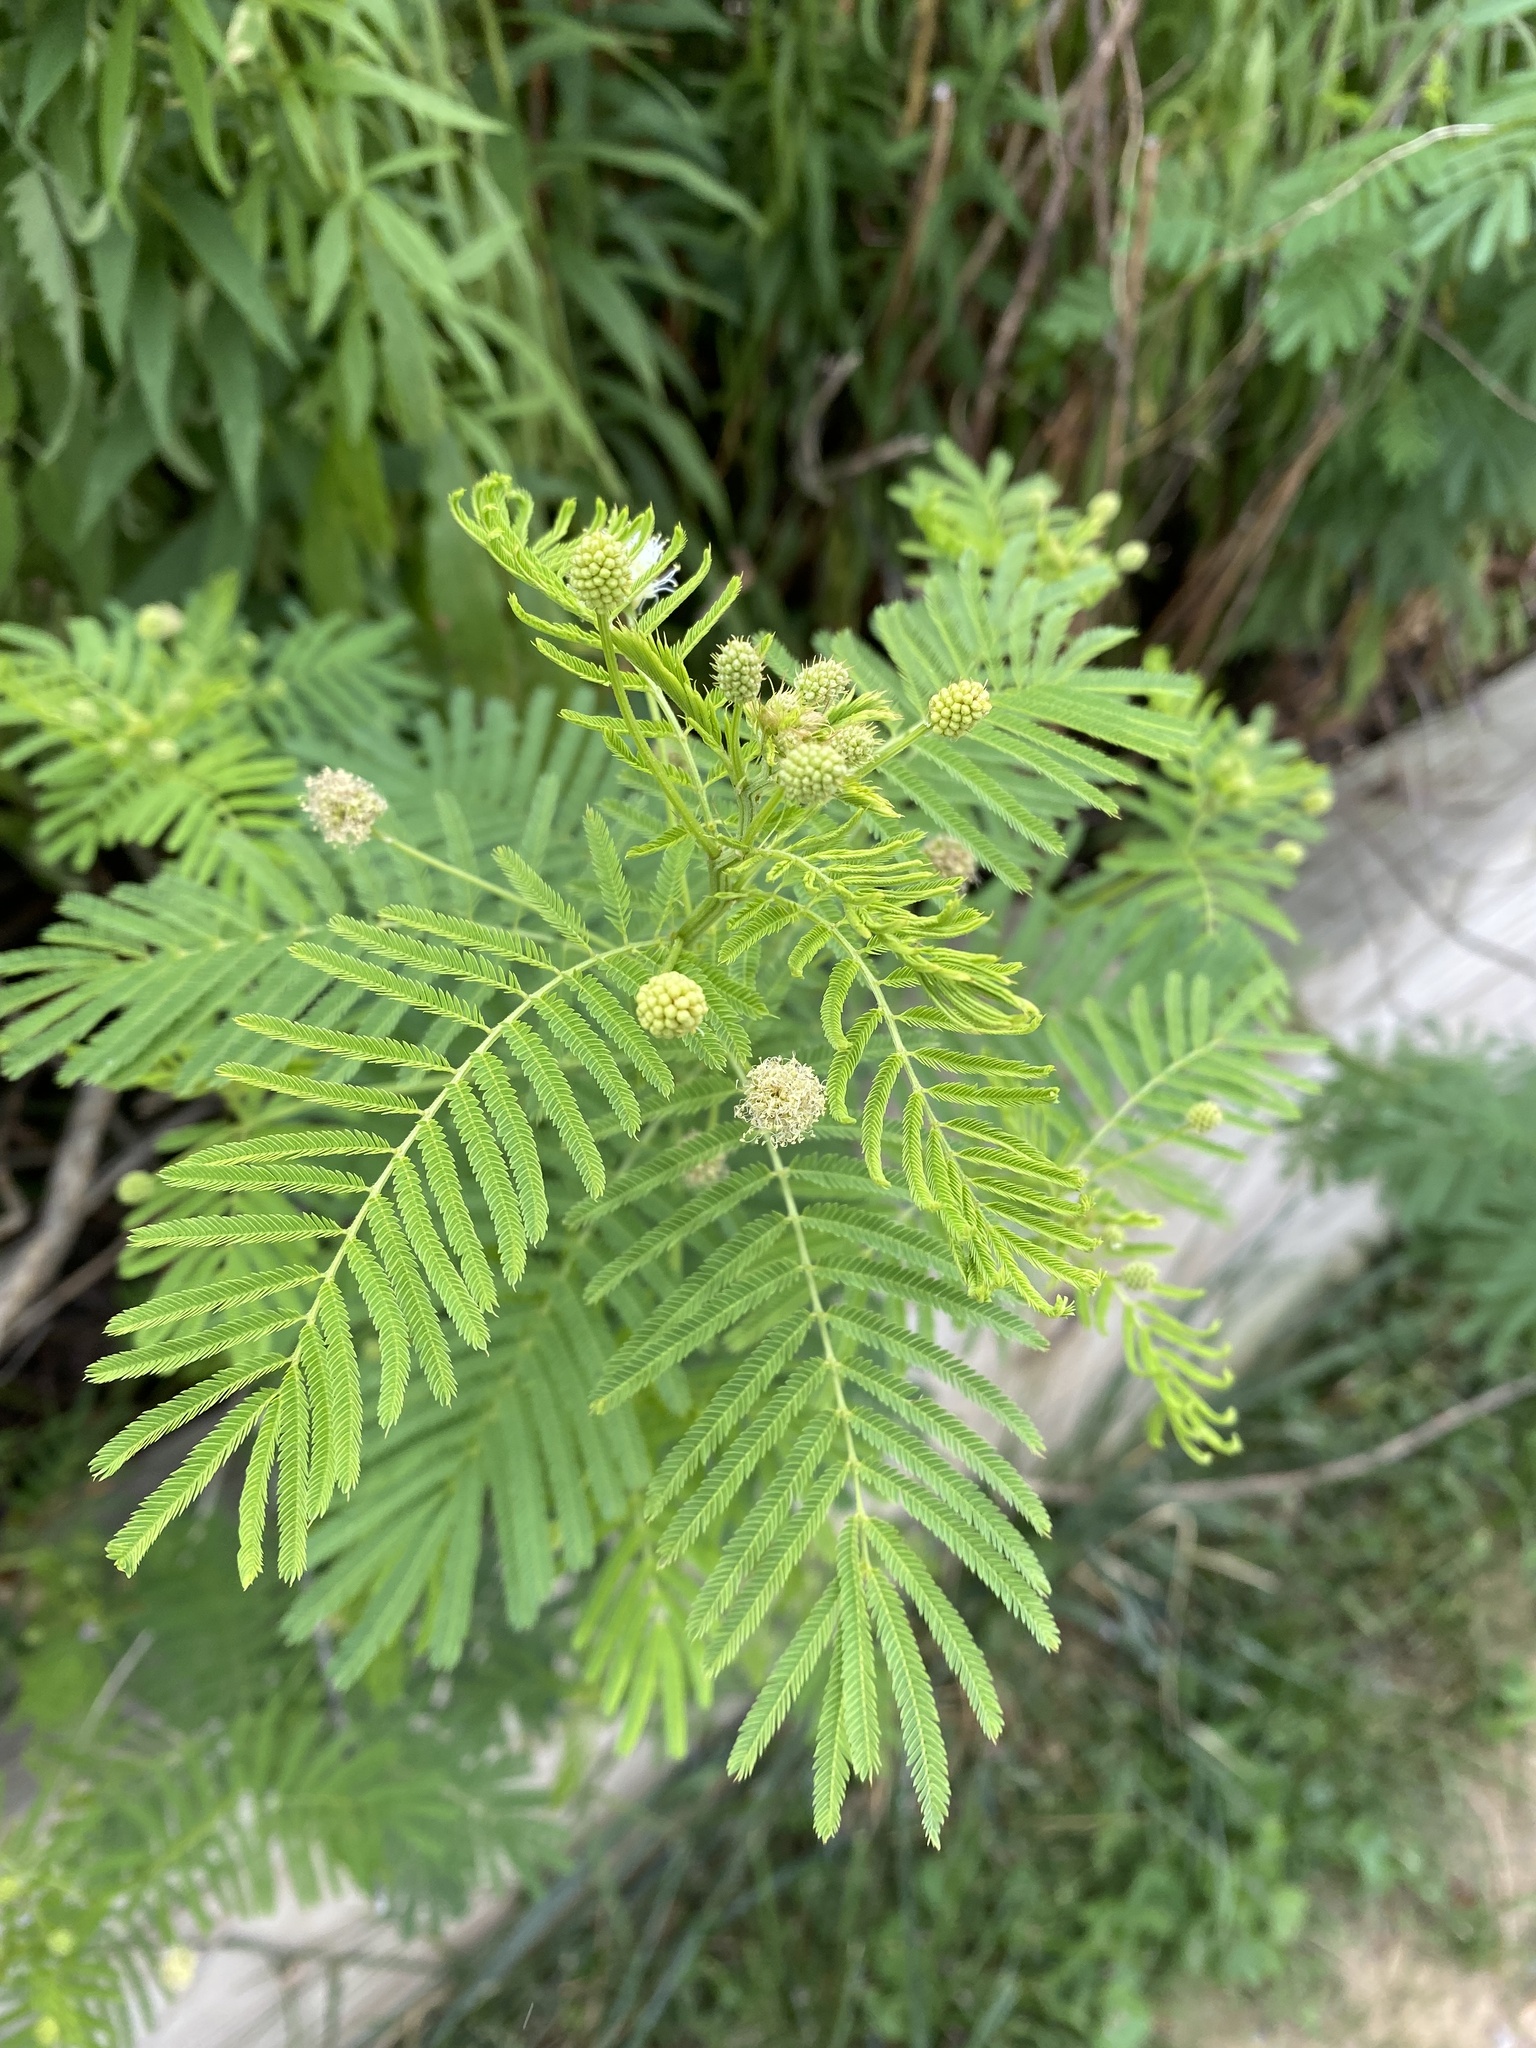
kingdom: Plantae
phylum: Tracheophyta
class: Magnoliopsida
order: Fabales
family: Fabaceae
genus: Desmanthus
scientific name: Desmanthus illinoensis
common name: Illinois bundle-flower
